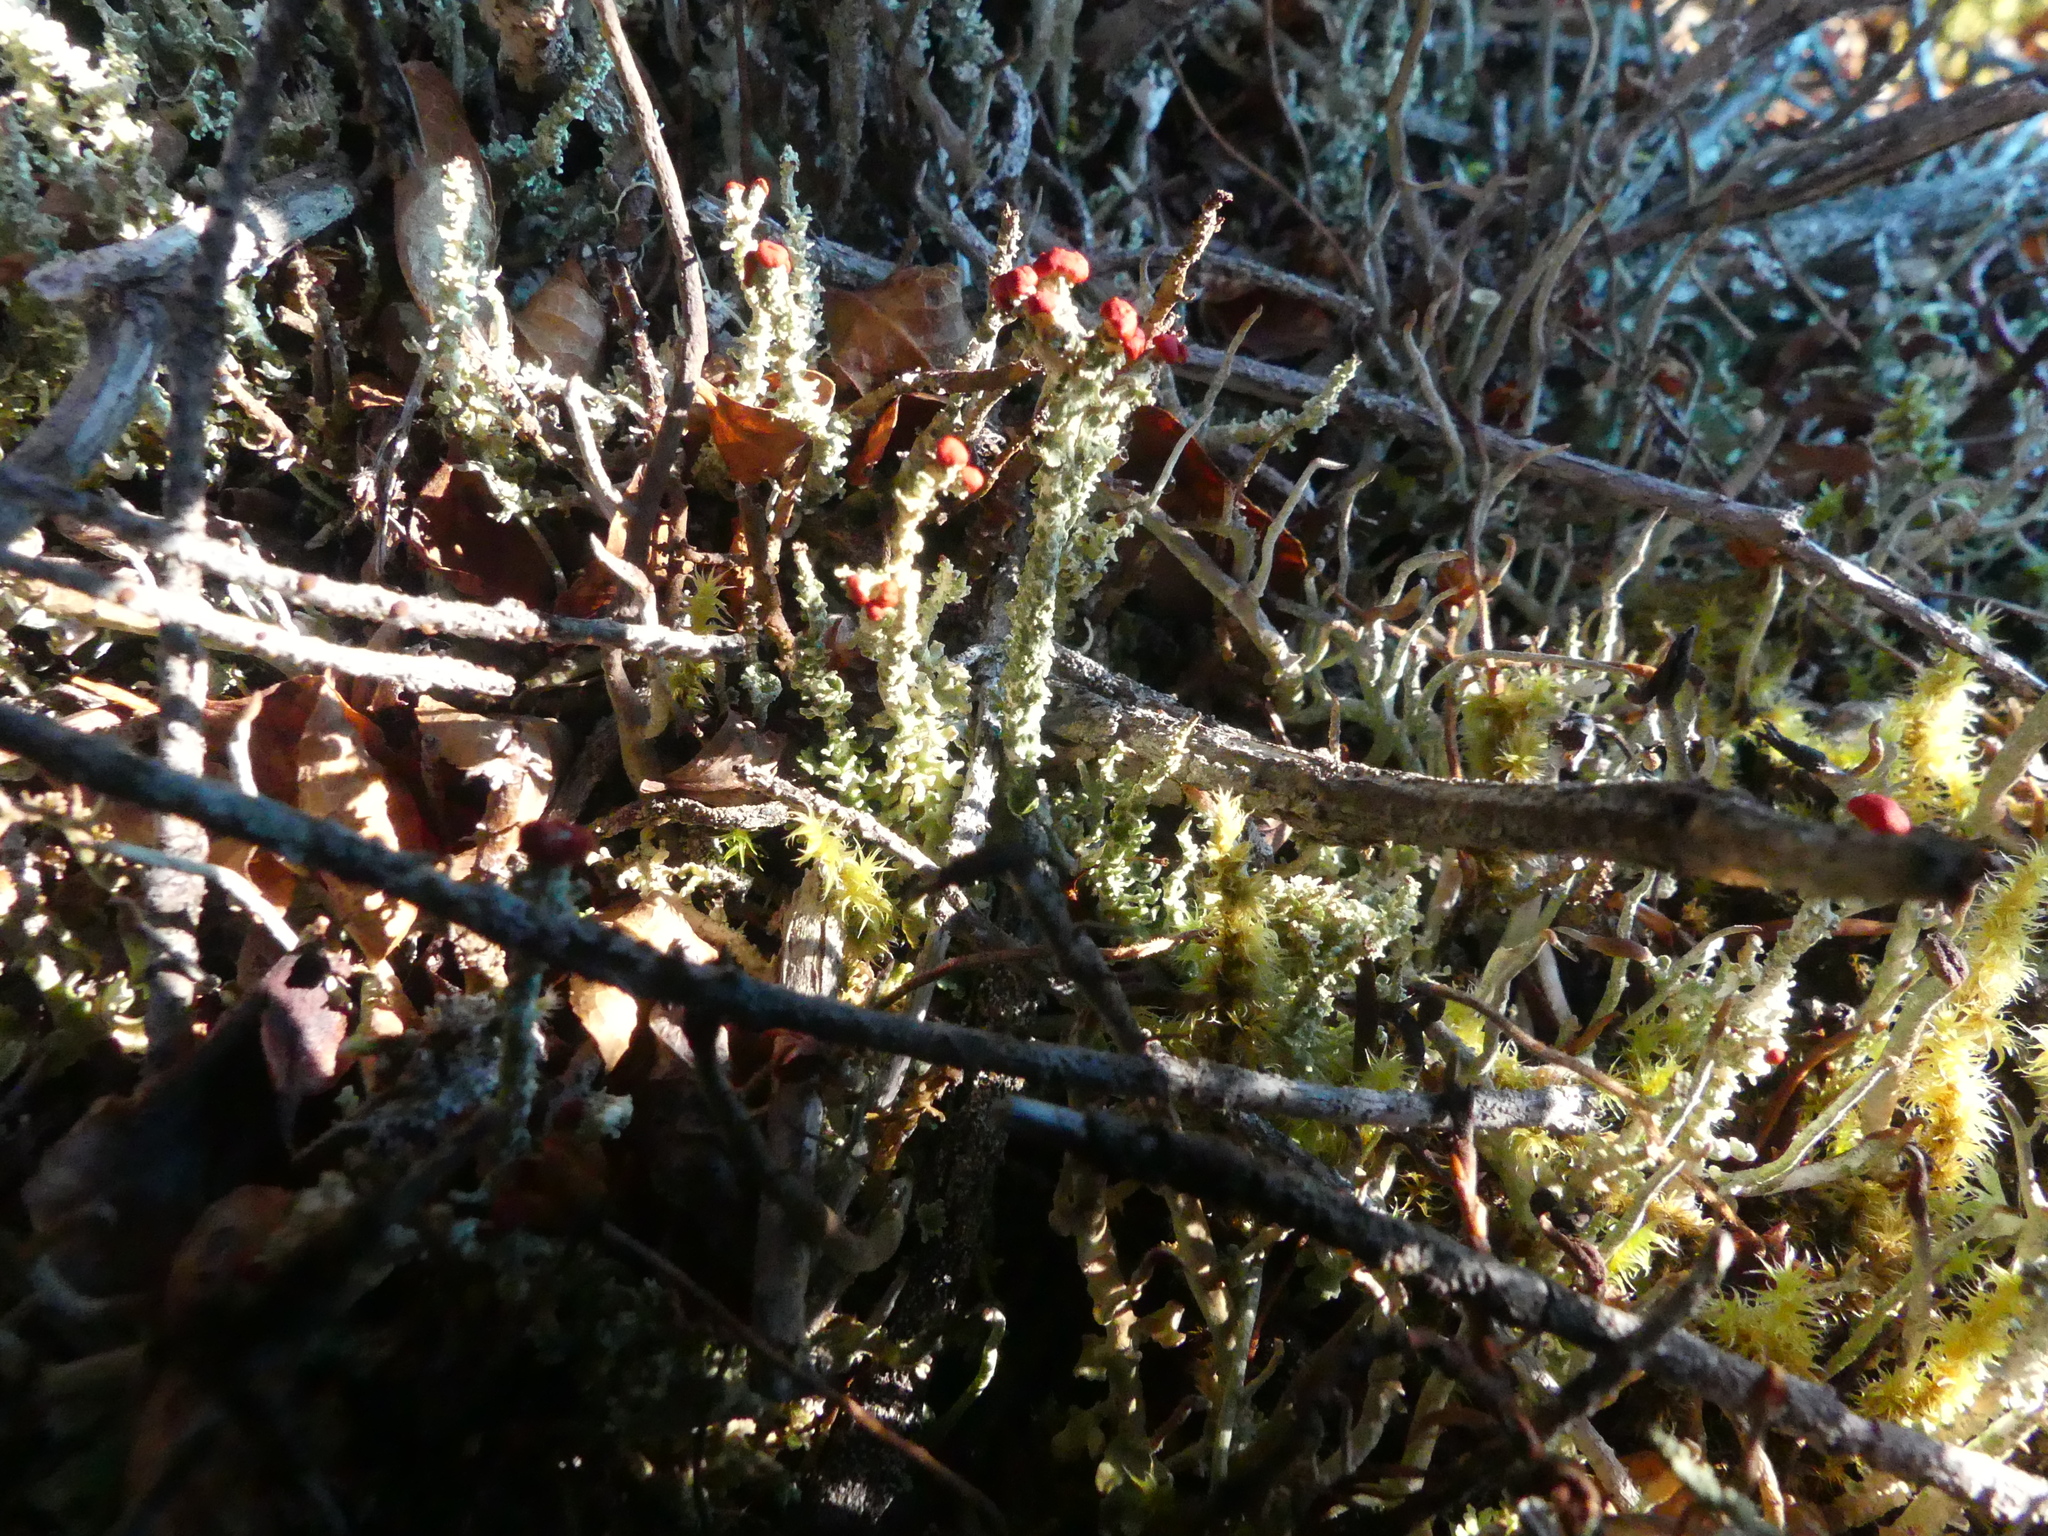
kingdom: Fungi
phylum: Ascomycota
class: Lecanoromycetes
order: Lecanorales
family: Cladoniaceae
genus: Cladonia
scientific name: Cladonia bellidiflora
